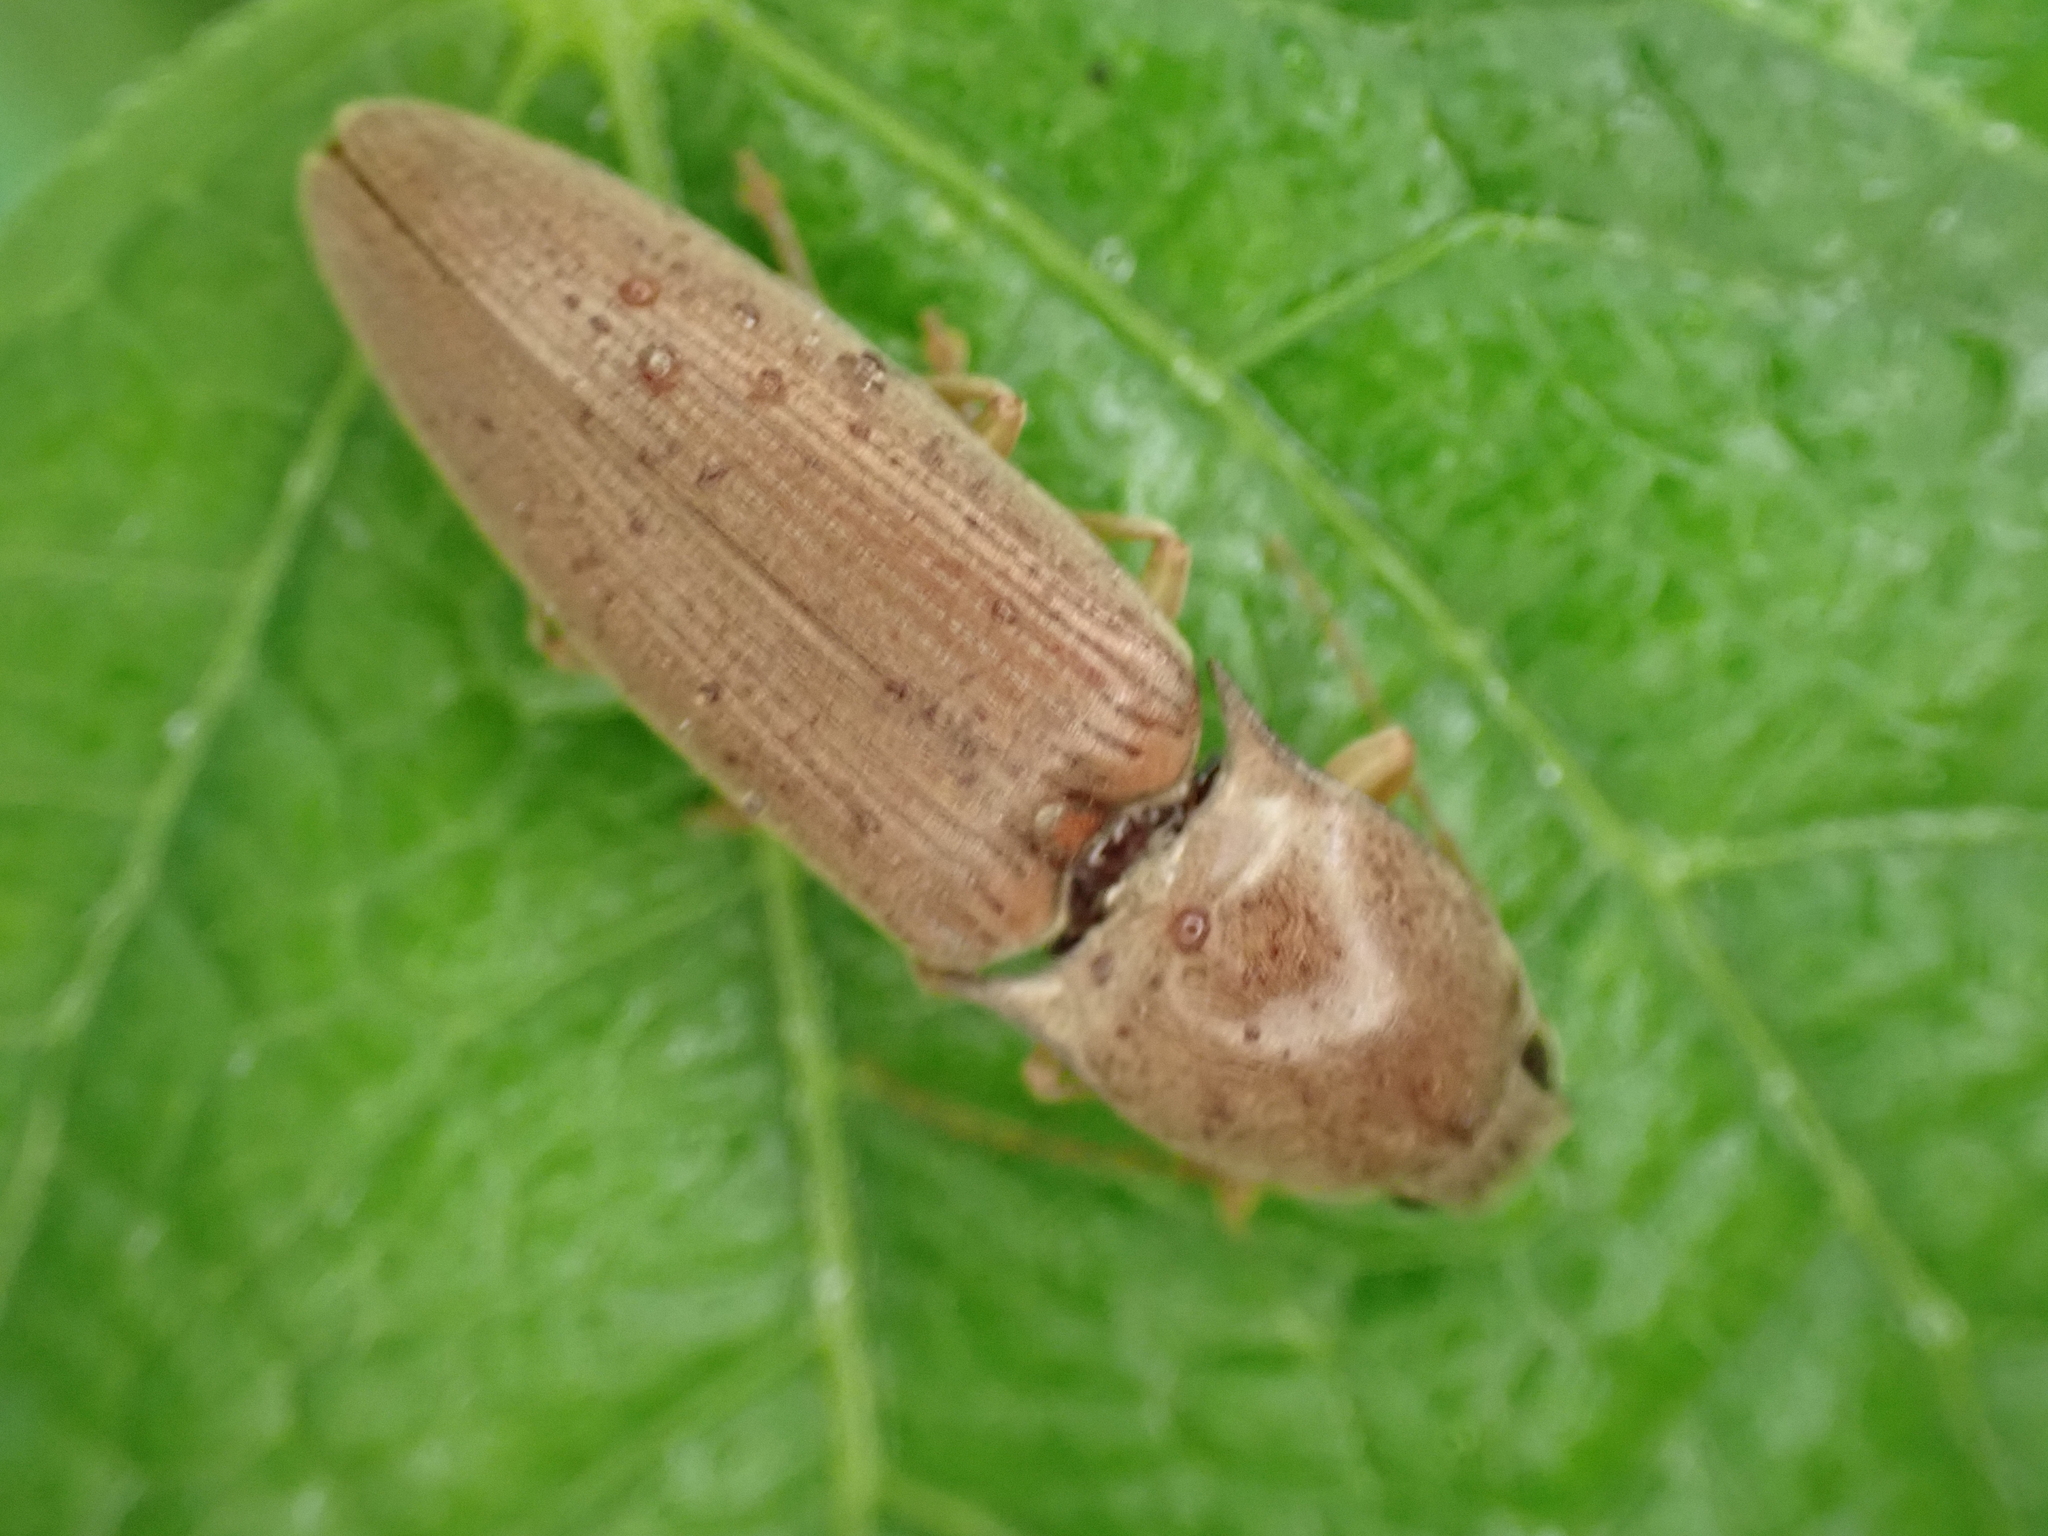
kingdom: Animalia
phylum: Arthropoda
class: Insecta
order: Coleoptera
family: Elateridae
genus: Monocrepidius
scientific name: Monocrepidius lividus
